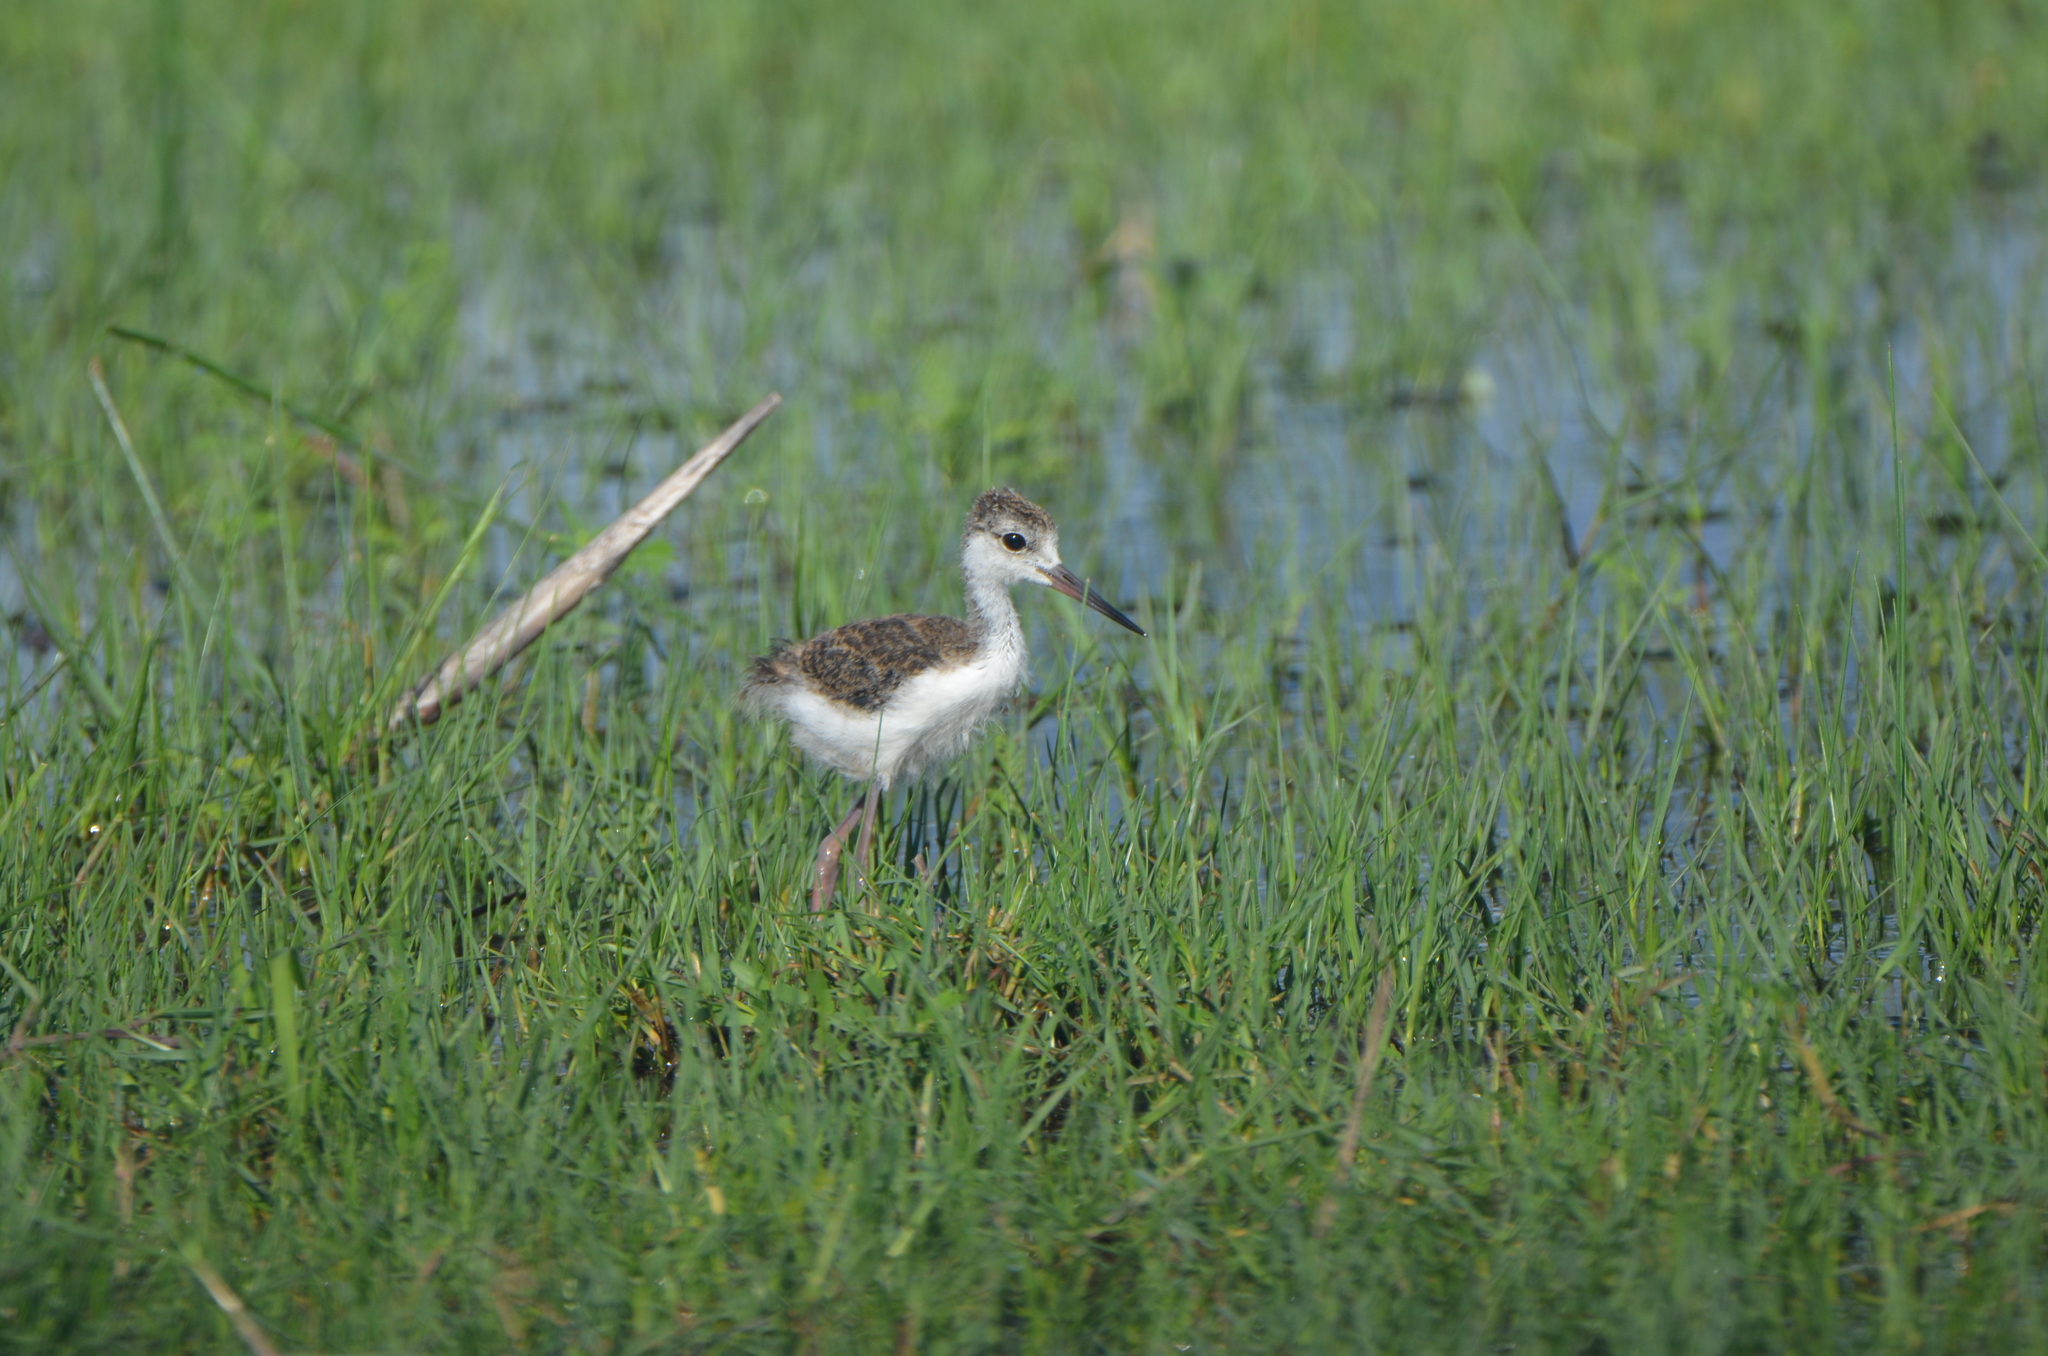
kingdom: Animalia
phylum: Chordata
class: Aves
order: Charadriiformes
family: Recurvirostridae
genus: Himantopus
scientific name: Himantopus mexicanus
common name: Black-necked stilt
